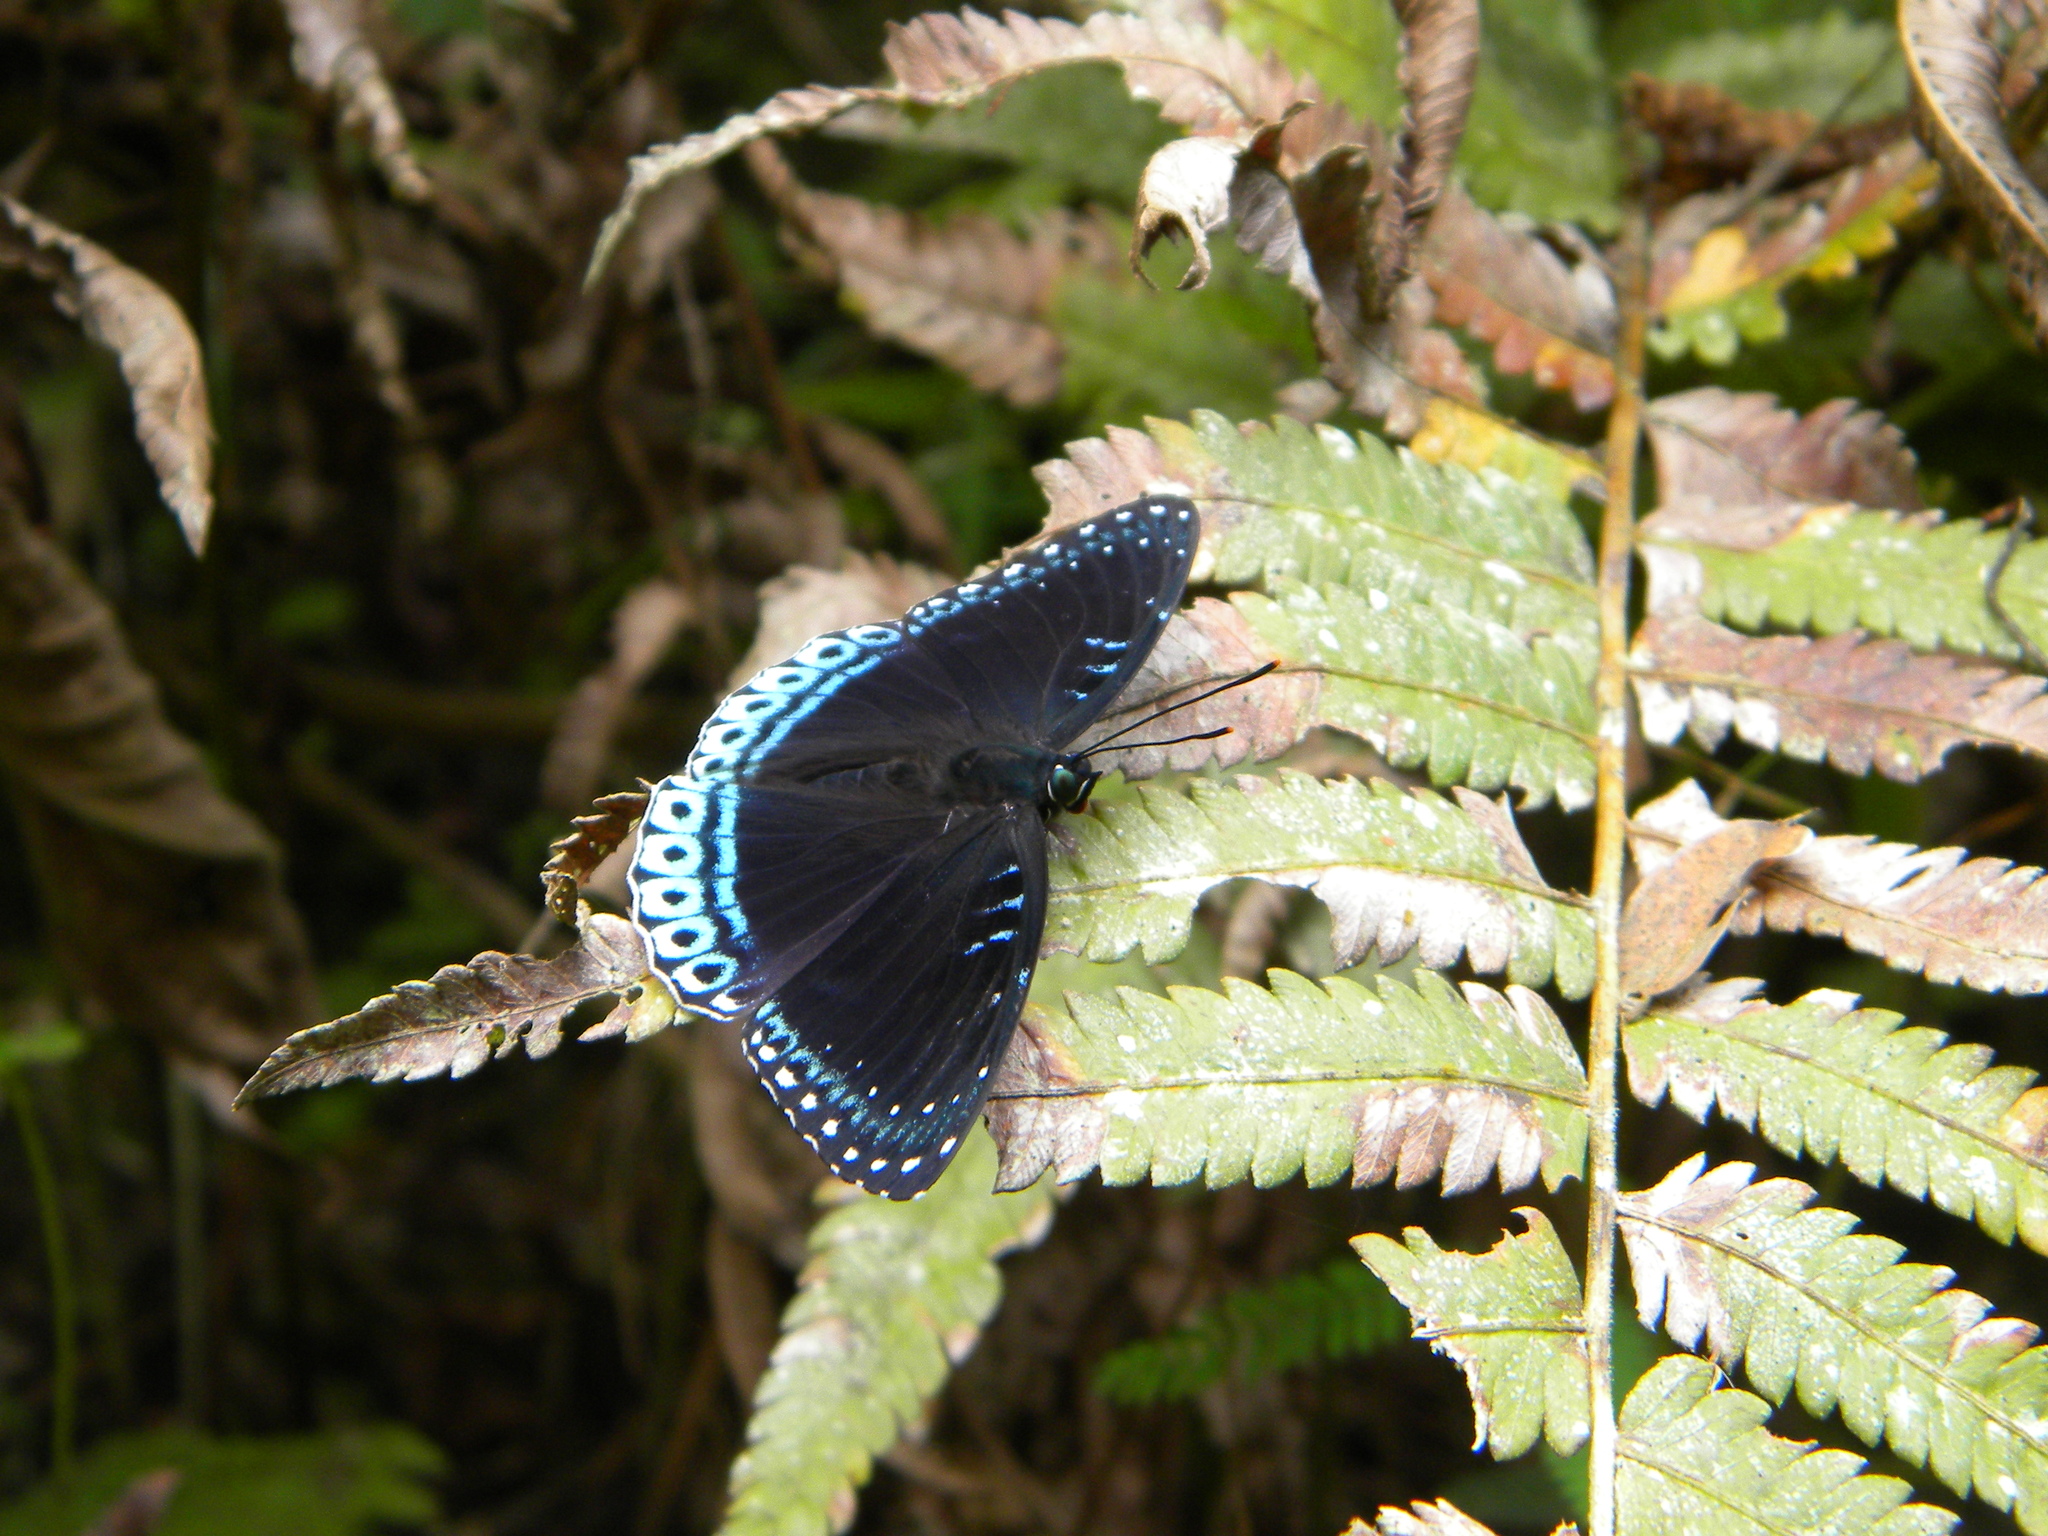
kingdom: Animalia
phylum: Arthropoda
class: Insecta
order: Lepidoptera
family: Nymphalidae
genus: Stibochiona
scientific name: Stibochiona nicea
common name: Popinjay
